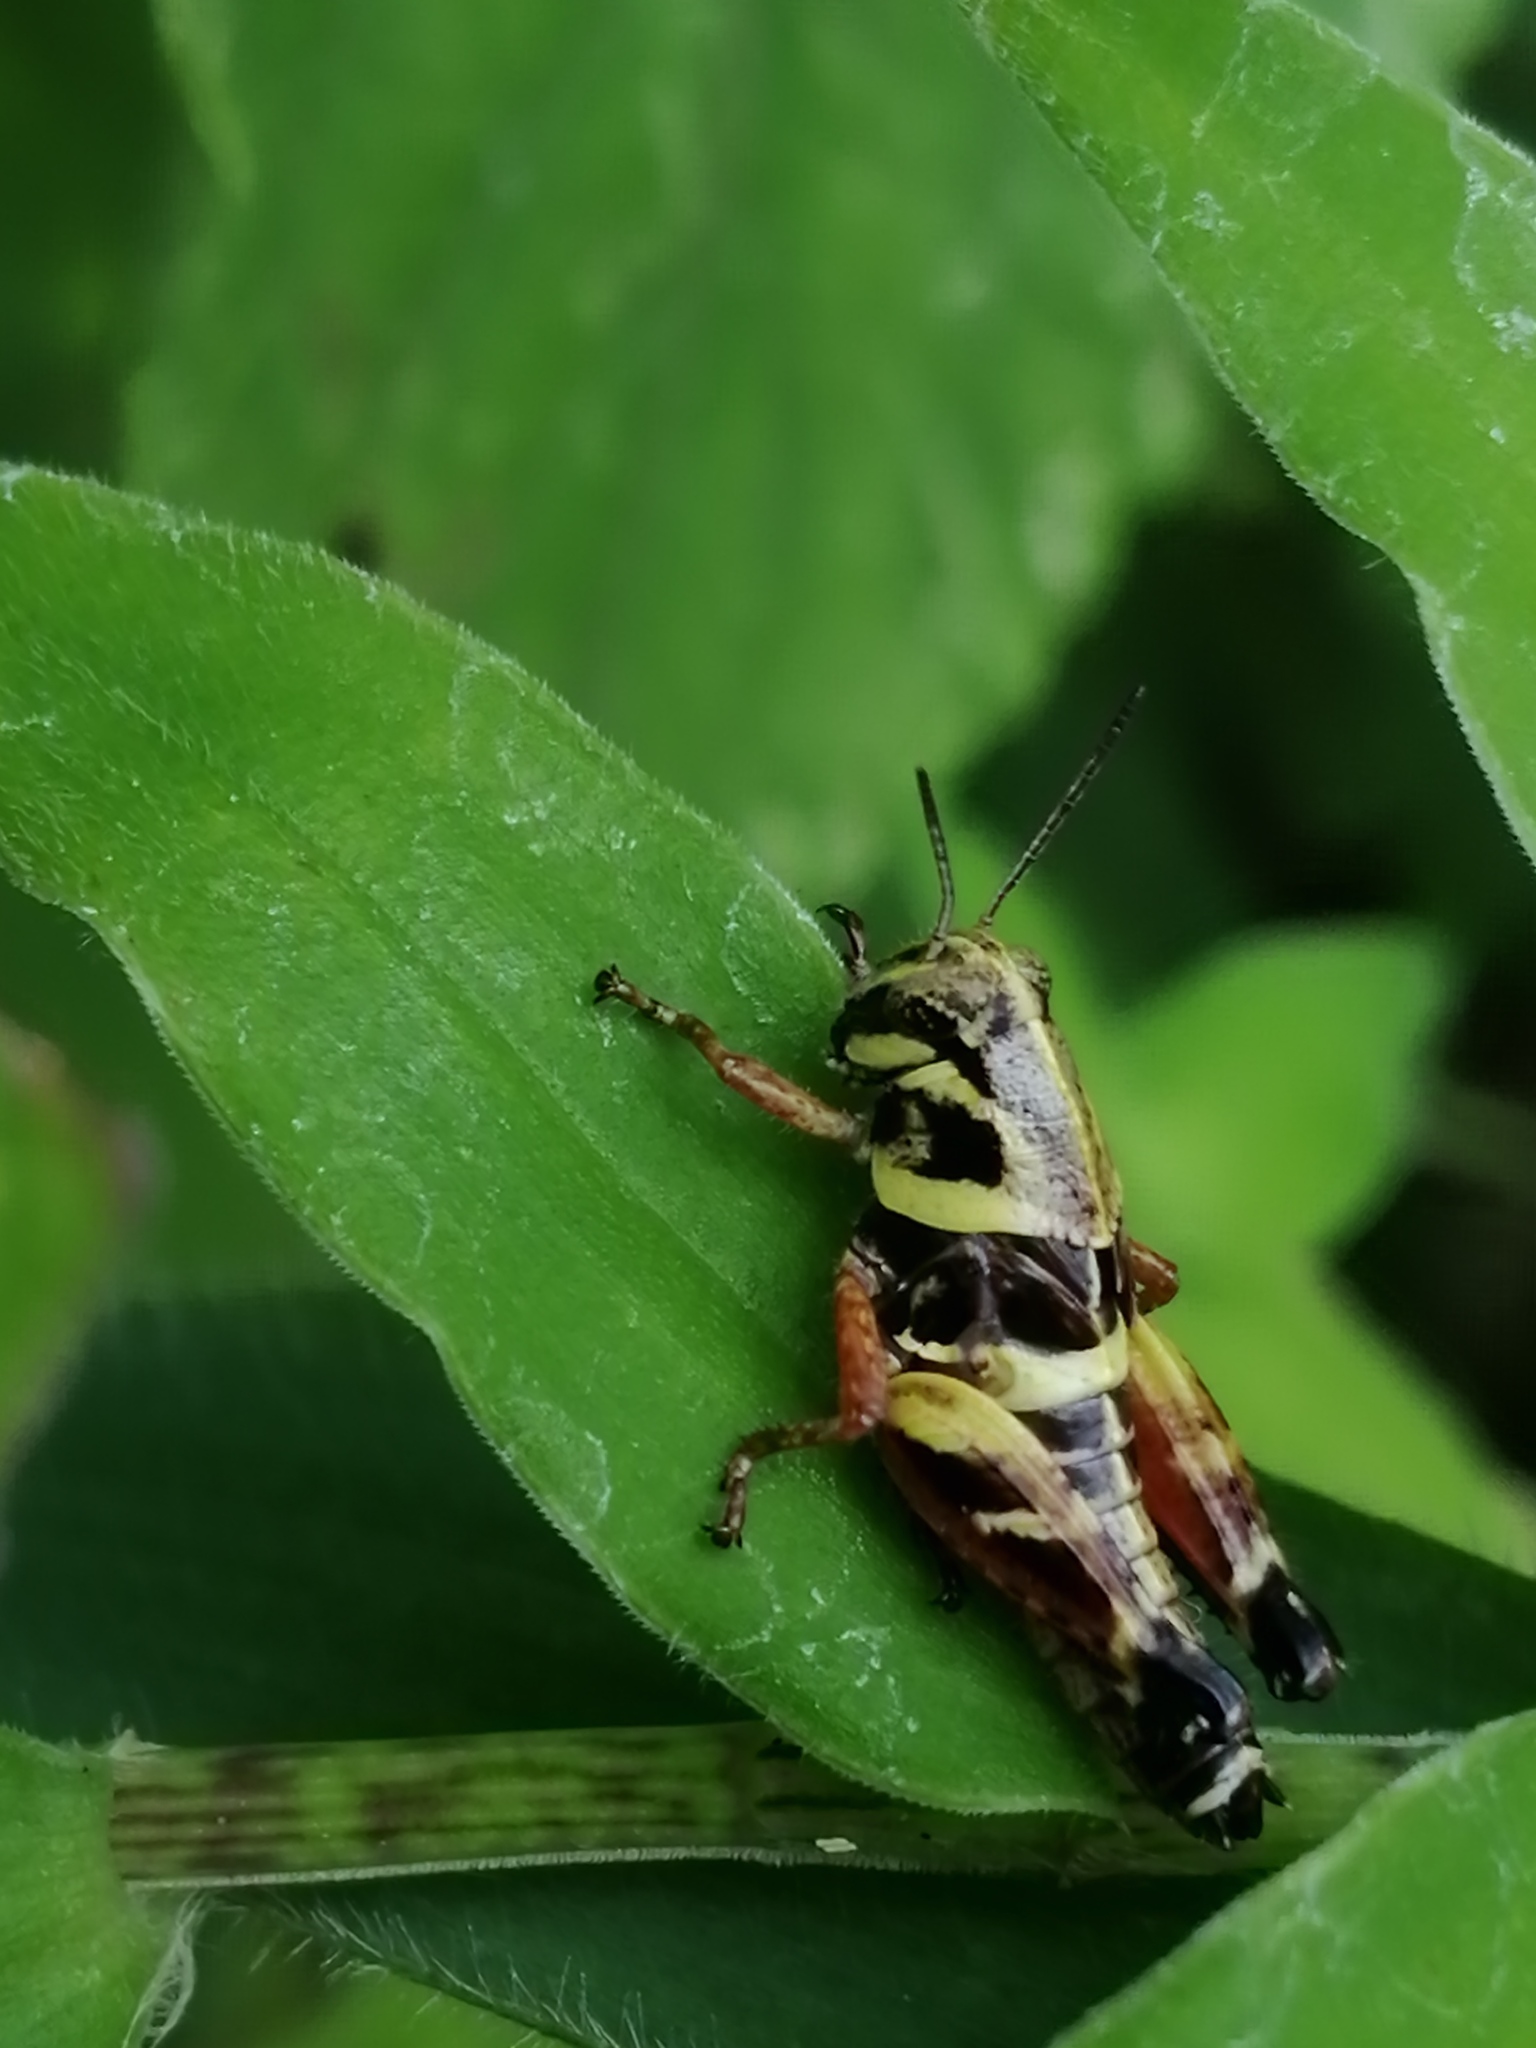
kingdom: Animalia
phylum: Arthropoda
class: Insecta
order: Orthoptera
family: Acrididae
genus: Aidemona
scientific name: Aidemona azteca
